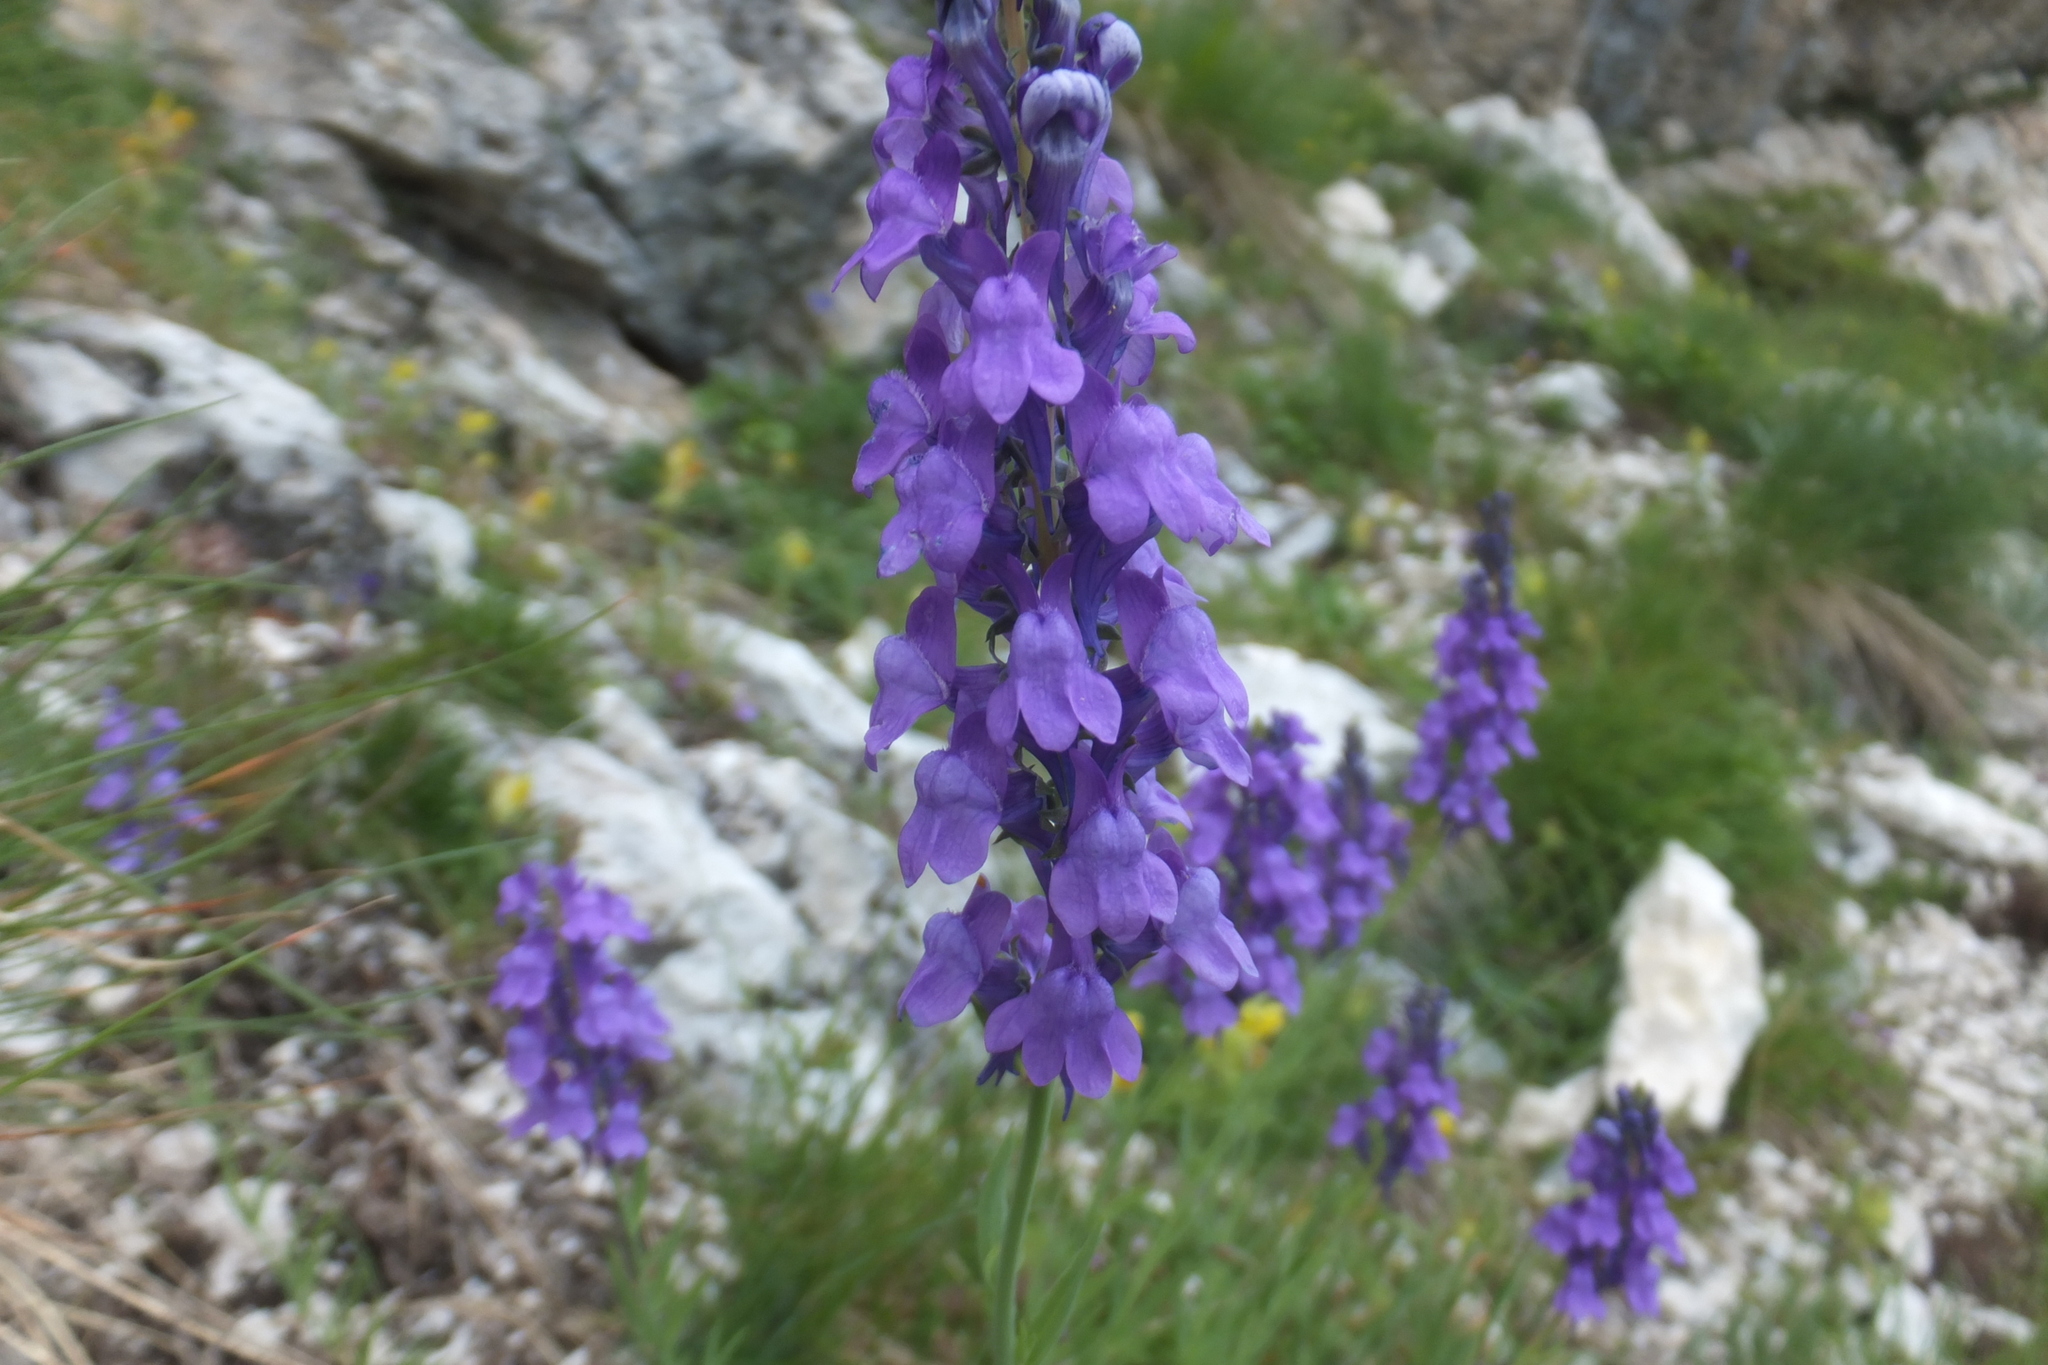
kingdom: Plantae
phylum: Tracheophyta
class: Magnoliopsida
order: Lamiales
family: Plantaginaceae
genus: Linaria
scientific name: Linaria purpurea
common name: Purple toadflax
